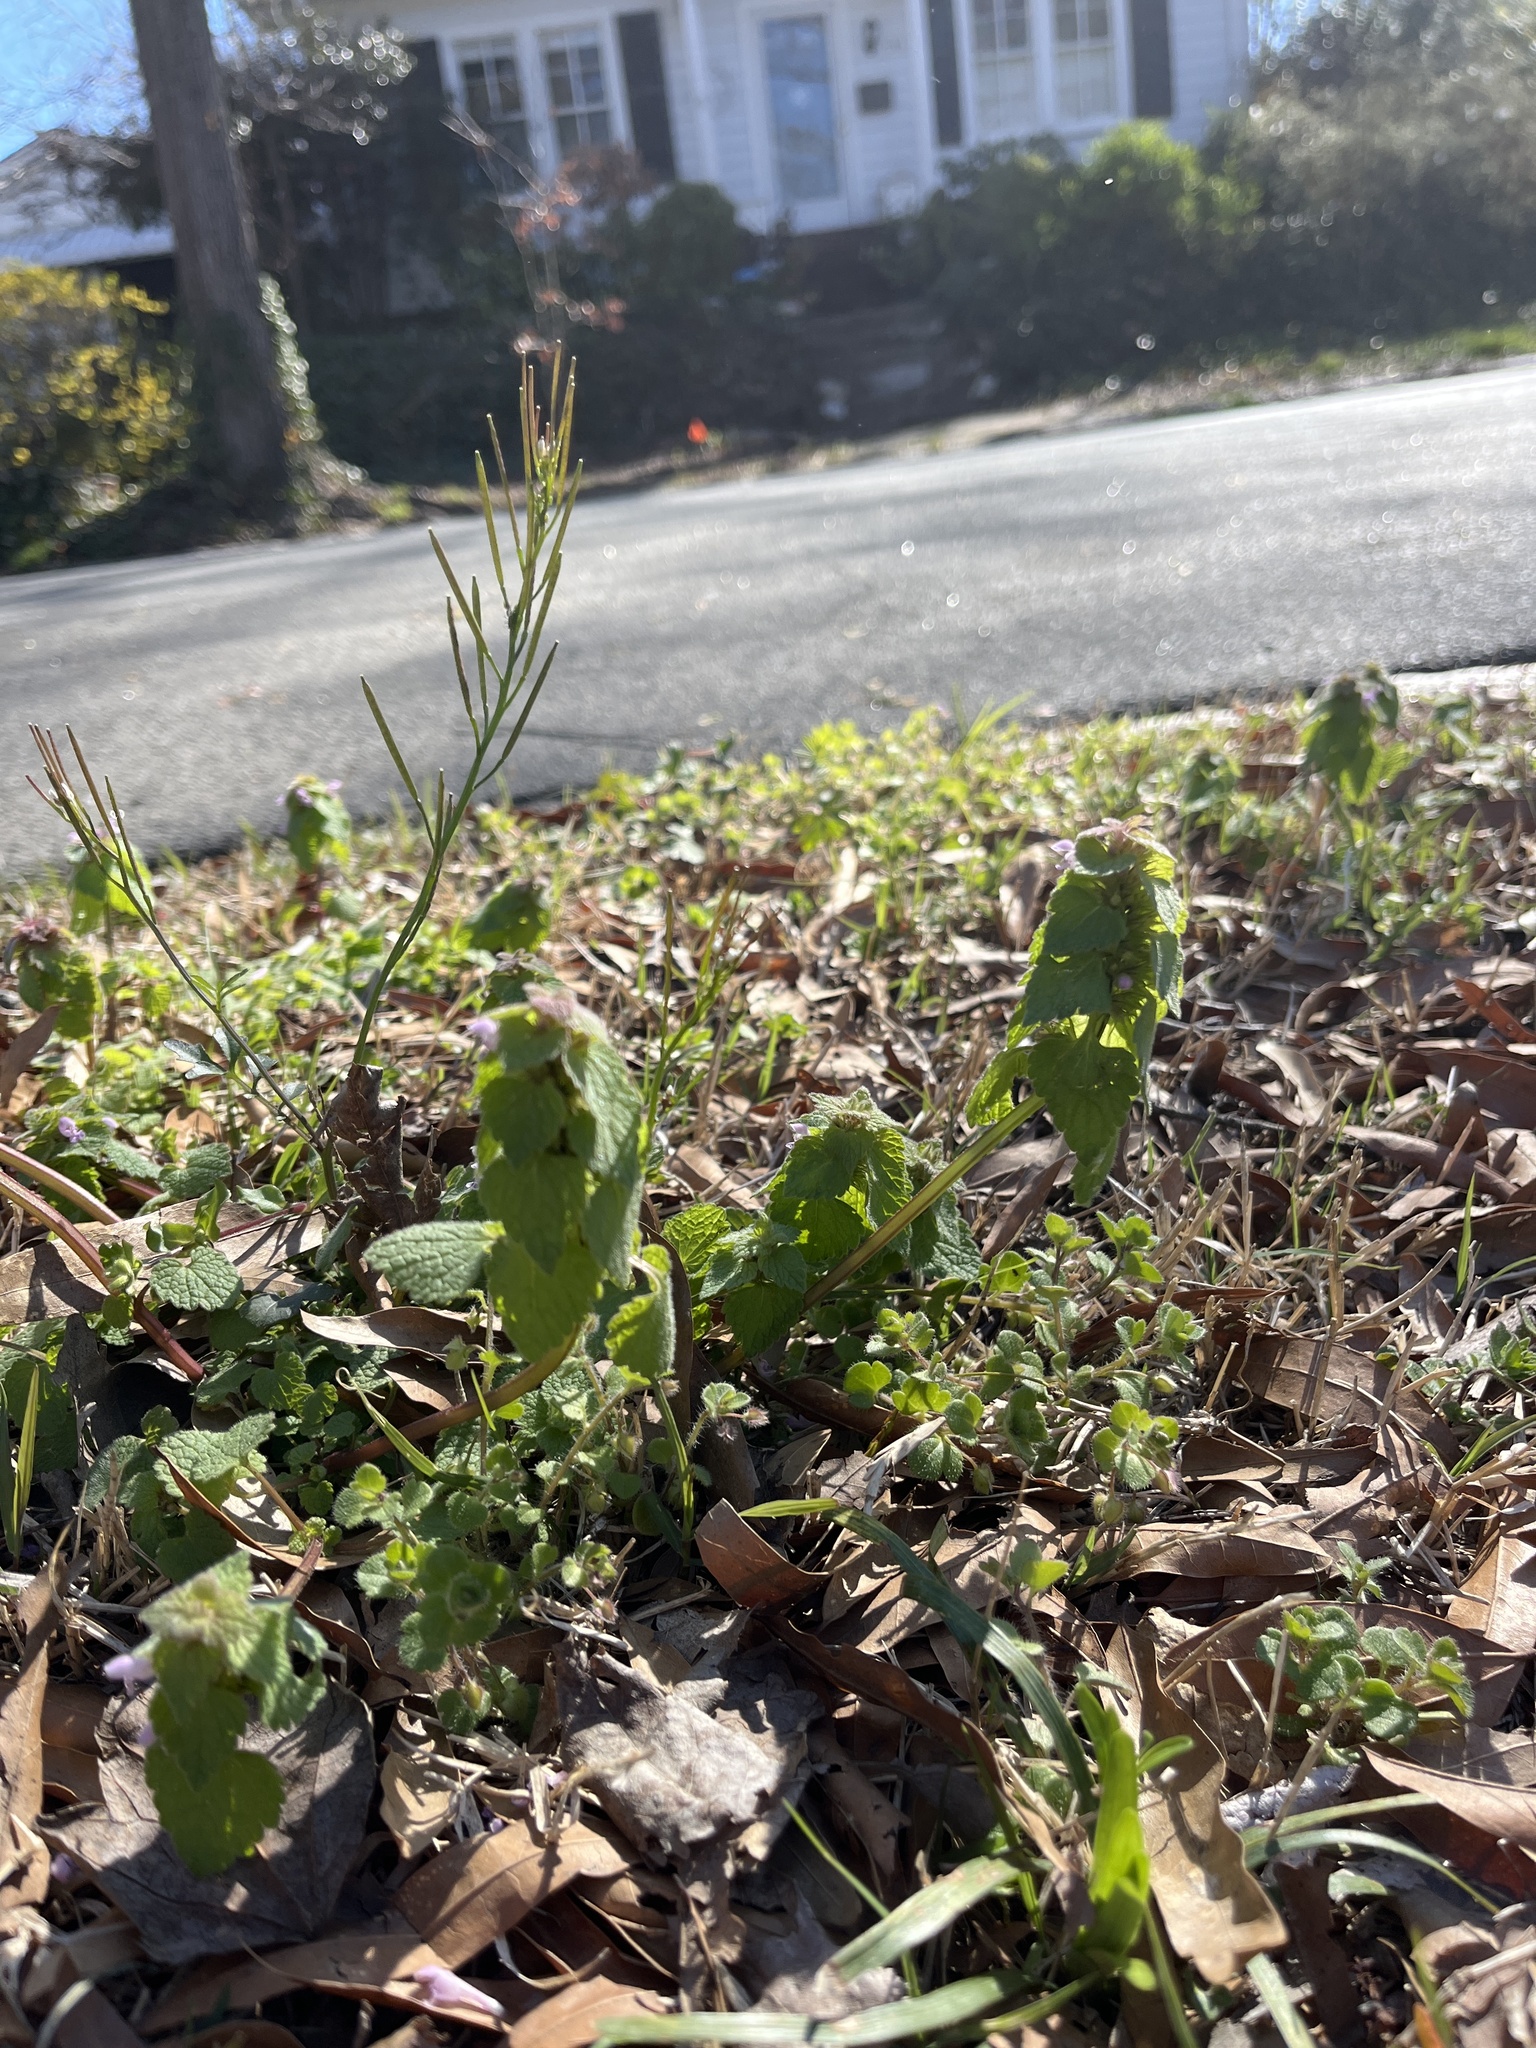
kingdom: Plantae
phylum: Tracheophyta
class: Magnoliopsida
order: Lamiales
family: Lamiaceae
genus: Lamium
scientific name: Lamium purpureum
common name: Red dead-nettle
